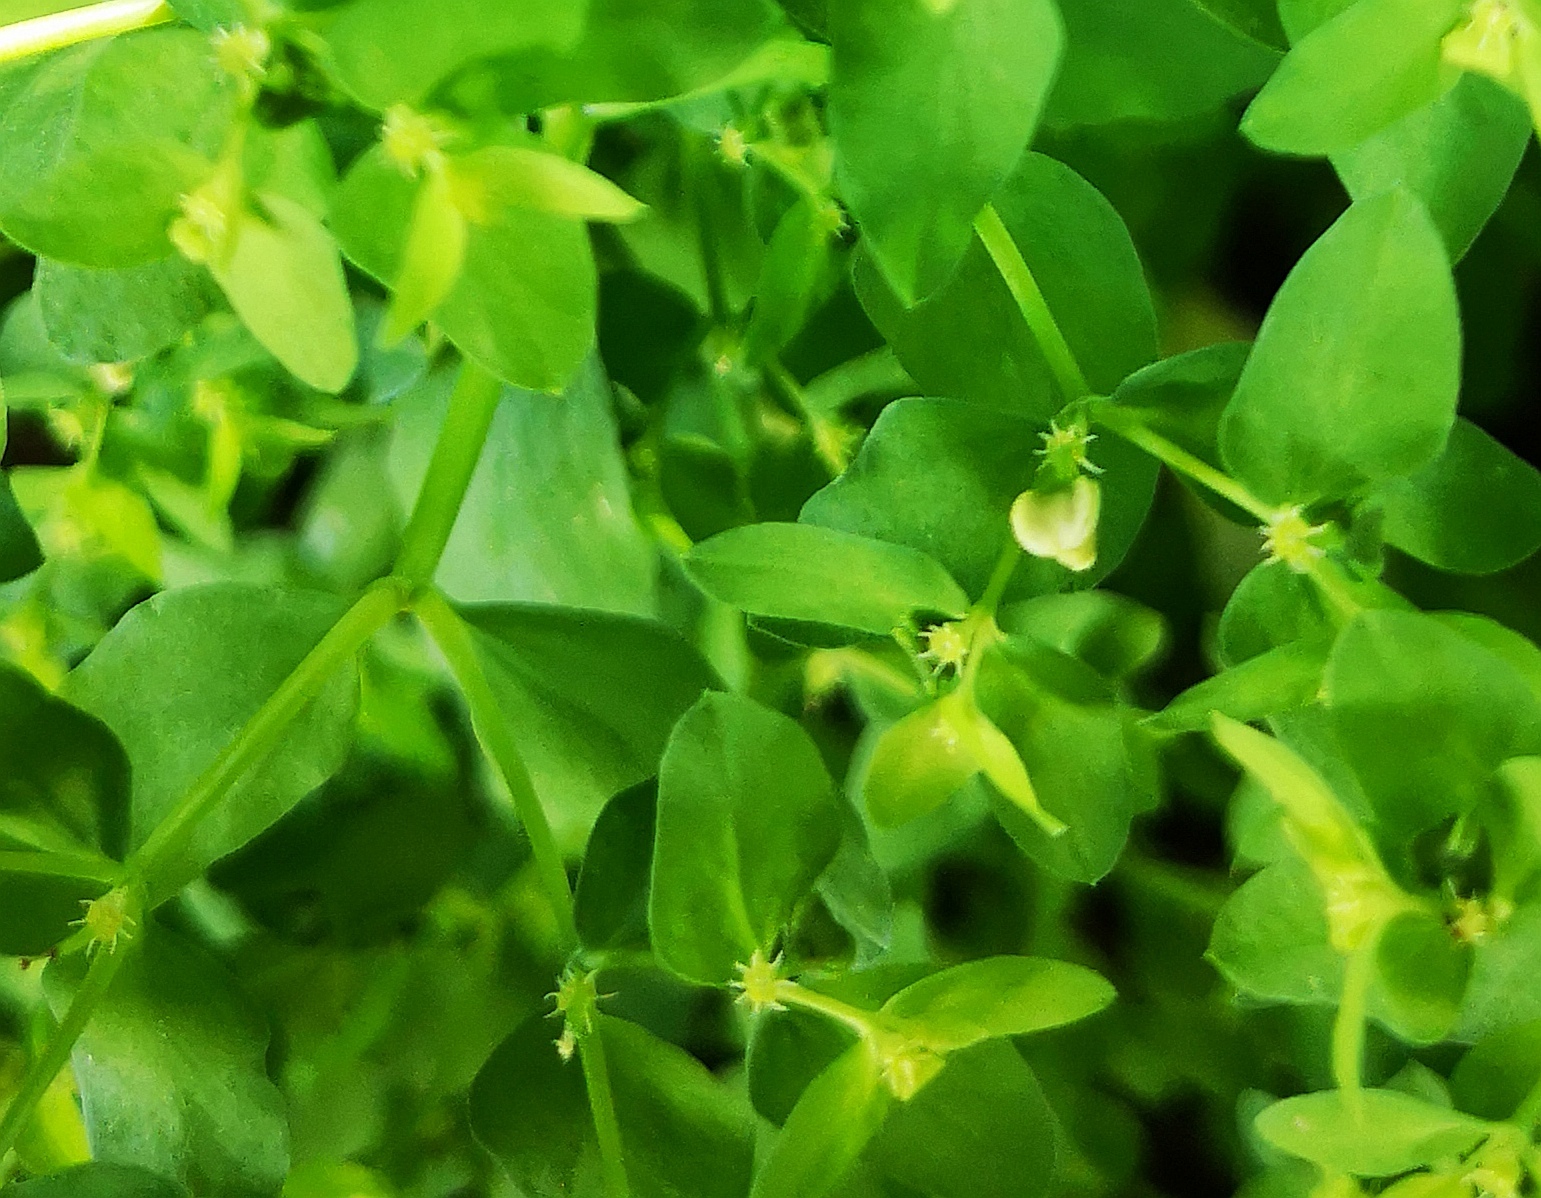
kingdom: Plantae
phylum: Tracheophyta
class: Magnoliopsida
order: Malpighiales
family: Euphorbiaceae
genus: Euphorbia
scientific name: Euphorbia peplus
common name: Petty spurge
